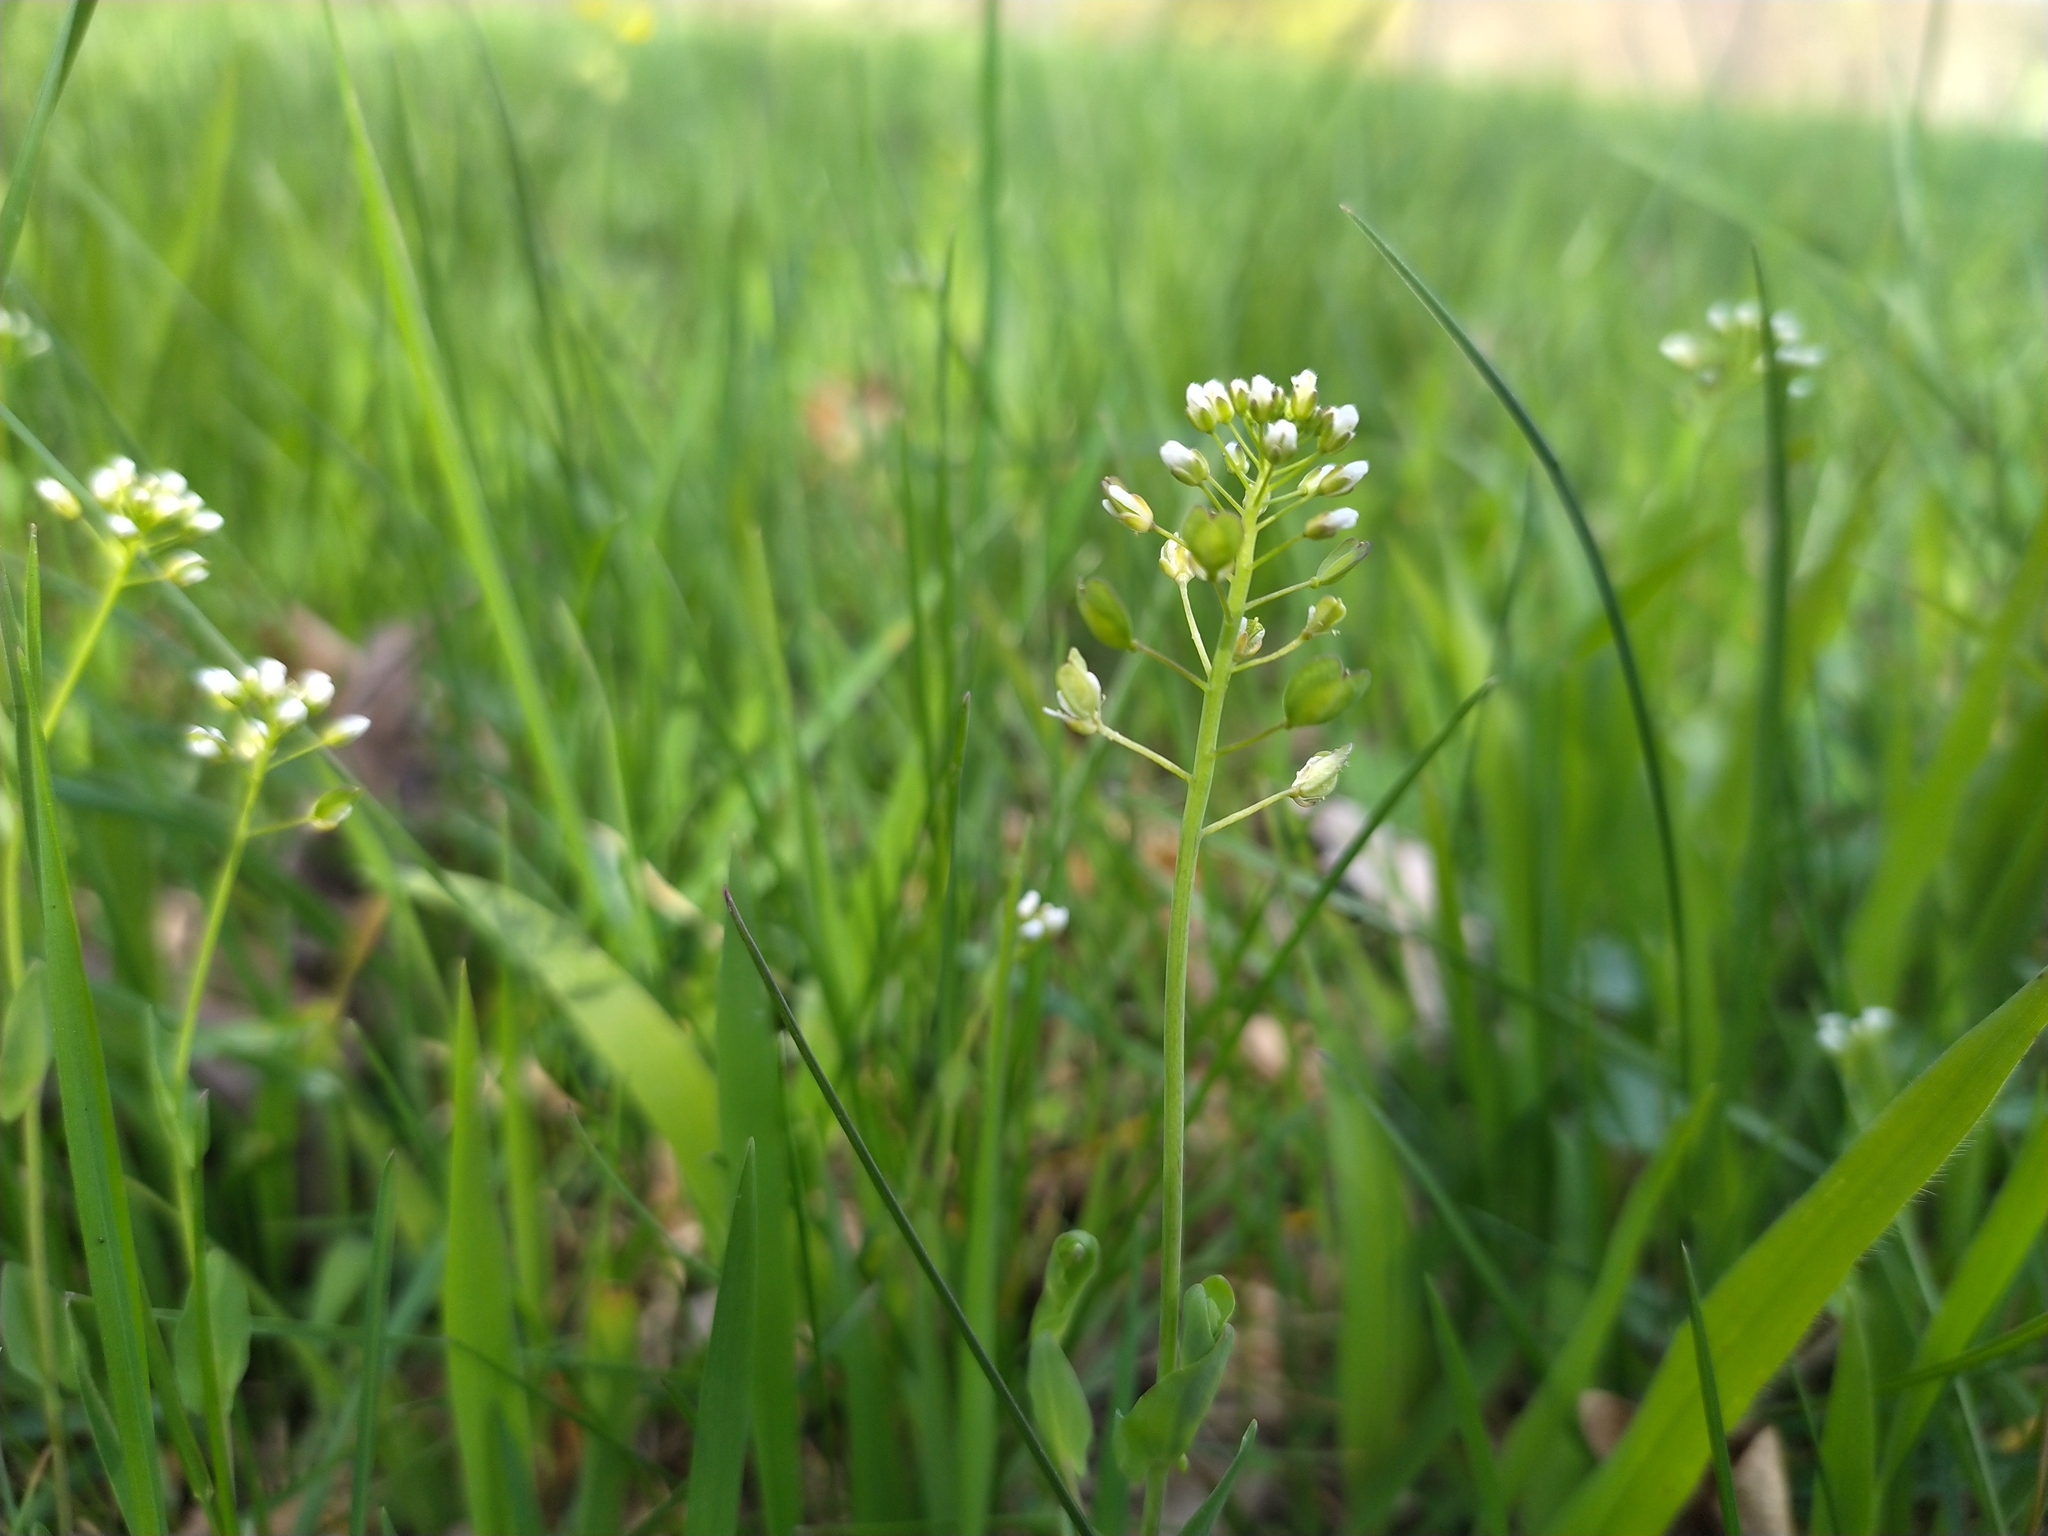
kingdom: Plantae
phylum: Tracheophyta
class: Magnoliopsida
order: Brassicales
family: Brassicaceae
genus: Noccaea
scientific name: Noccaea perfoliata
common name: Perfoliate pennycress
